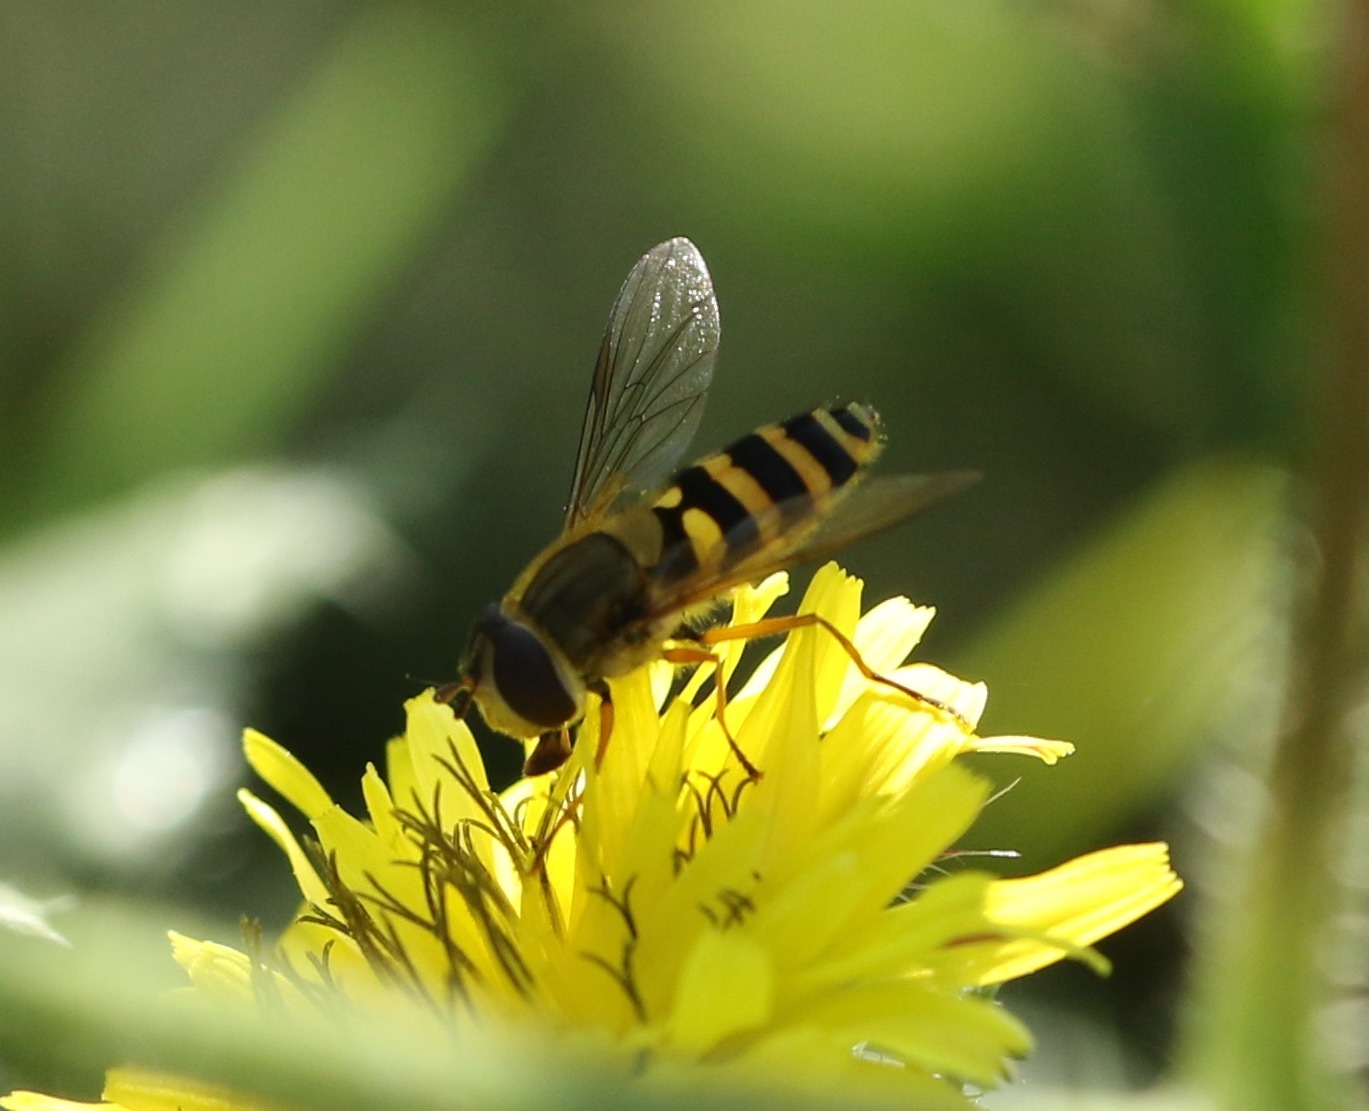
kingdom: Animalia
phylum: Arthropoda
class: Insecta
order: Diptera
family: Syrphidae
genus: Syrphus
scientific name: Syrphus ribesii
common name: Common flower fly
